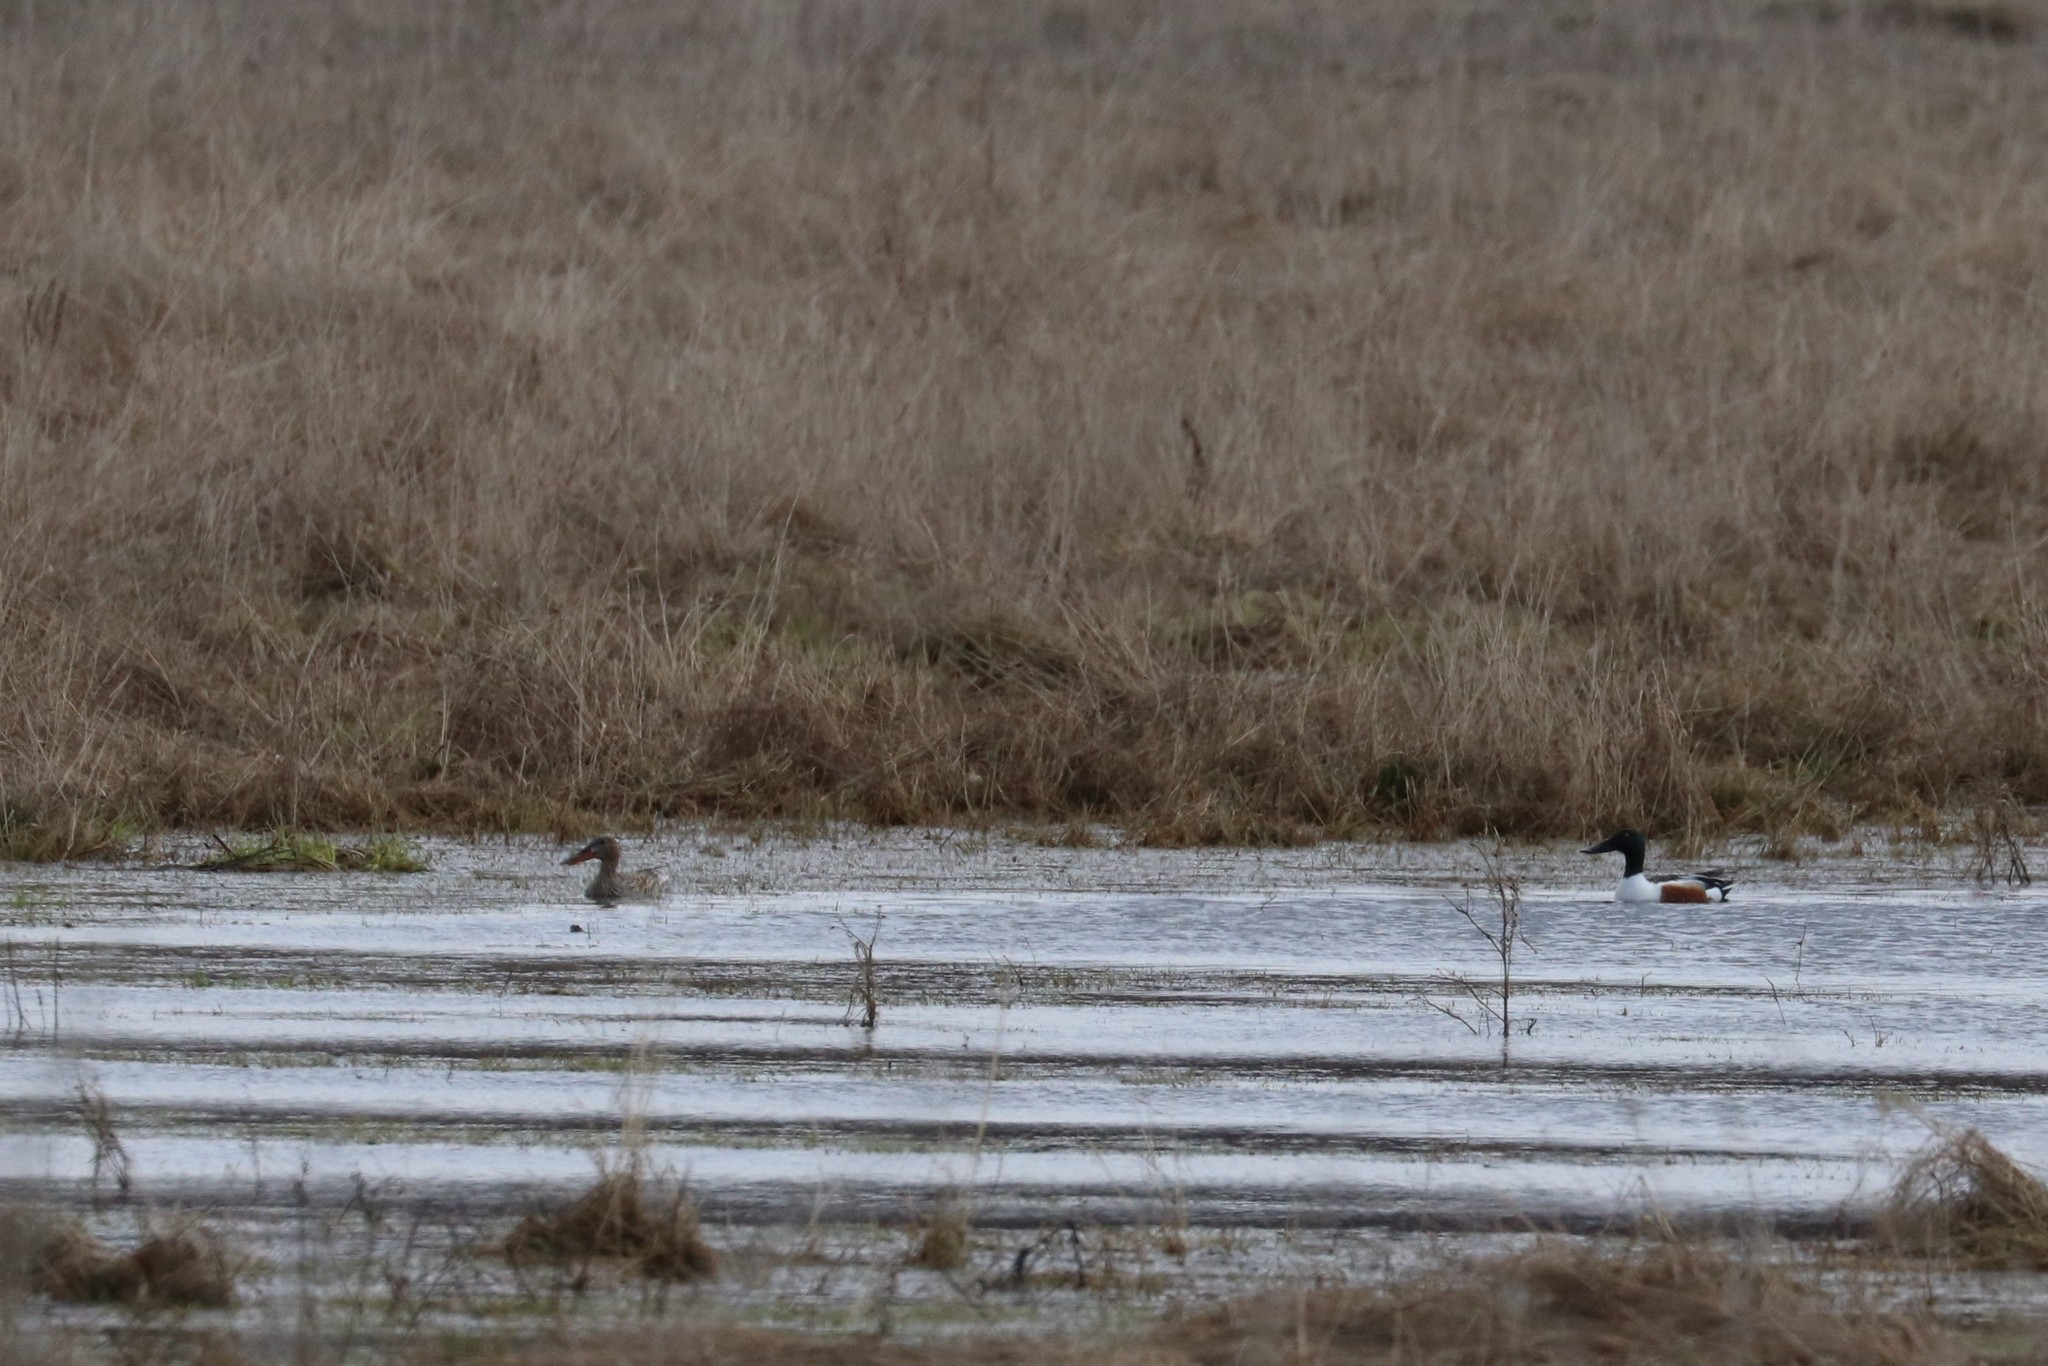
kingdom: Animalia
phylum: Chordata
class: Aves
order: Anseriformes
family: Anatidae
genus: Spatula
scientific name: Spatula clypeata
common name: Northern shoveler
